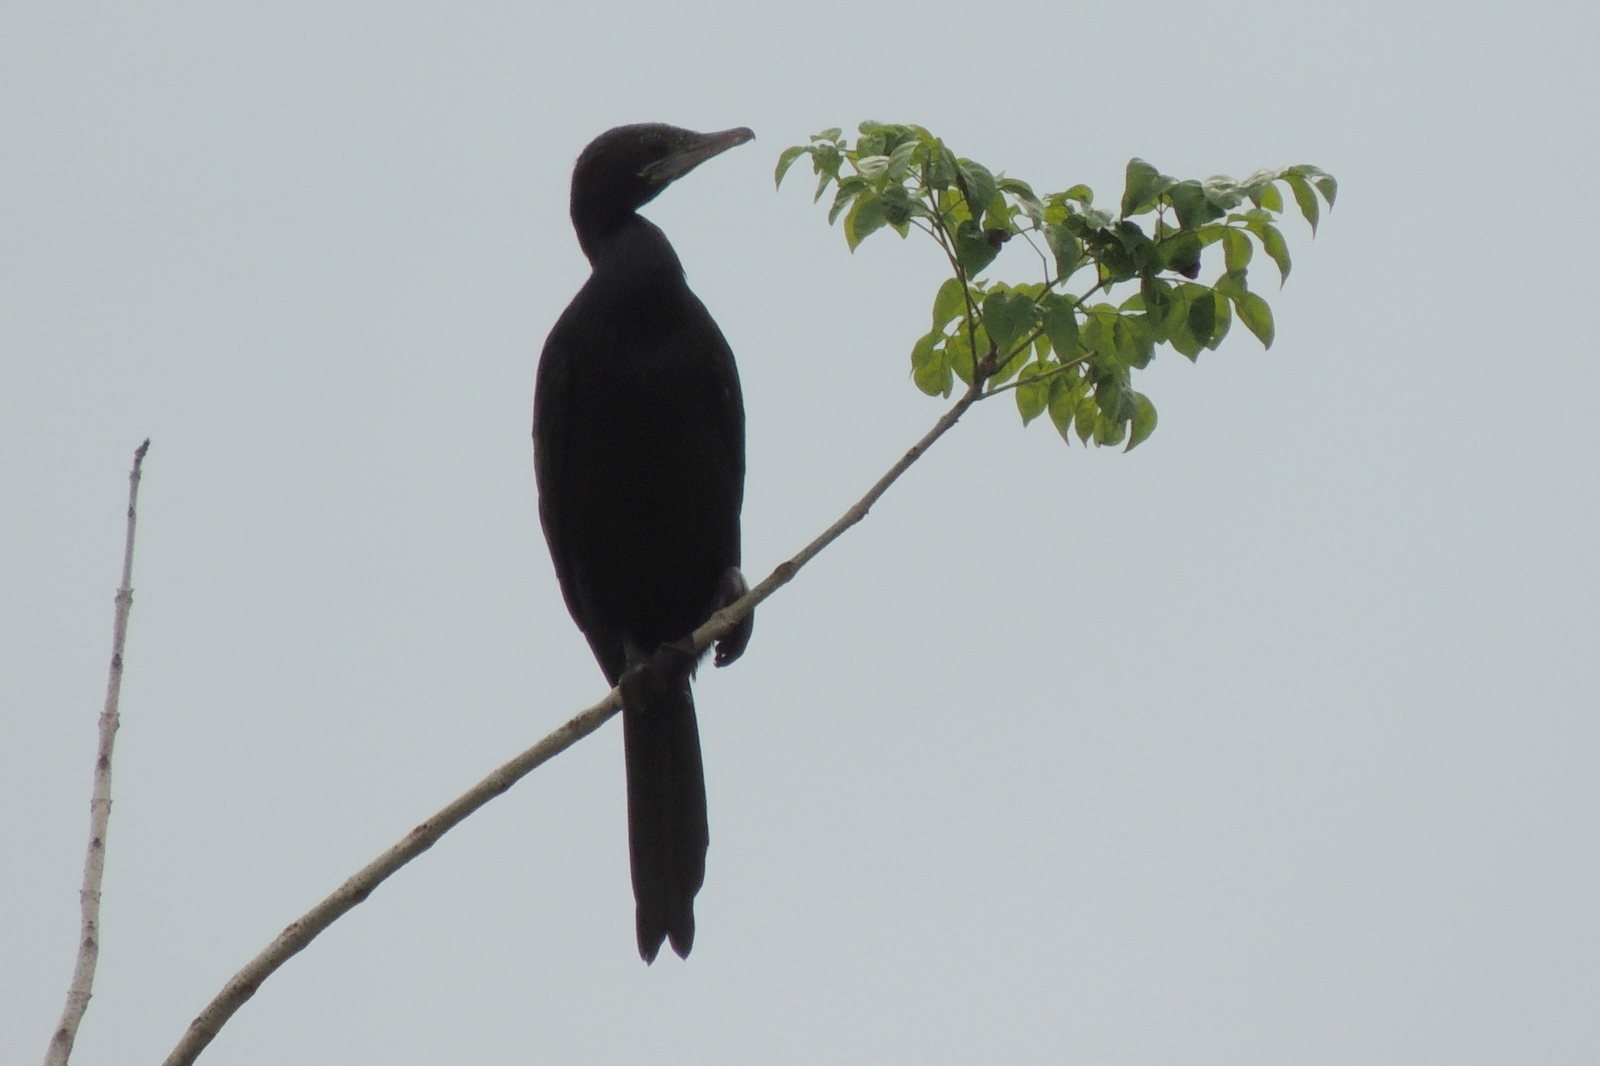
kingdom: Animalia
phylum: Chordata
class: Aves
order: Suliformes
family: Phalacrocoracidae
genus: Microcarbo
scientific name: Microcarbo niger
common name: Little cormorant
